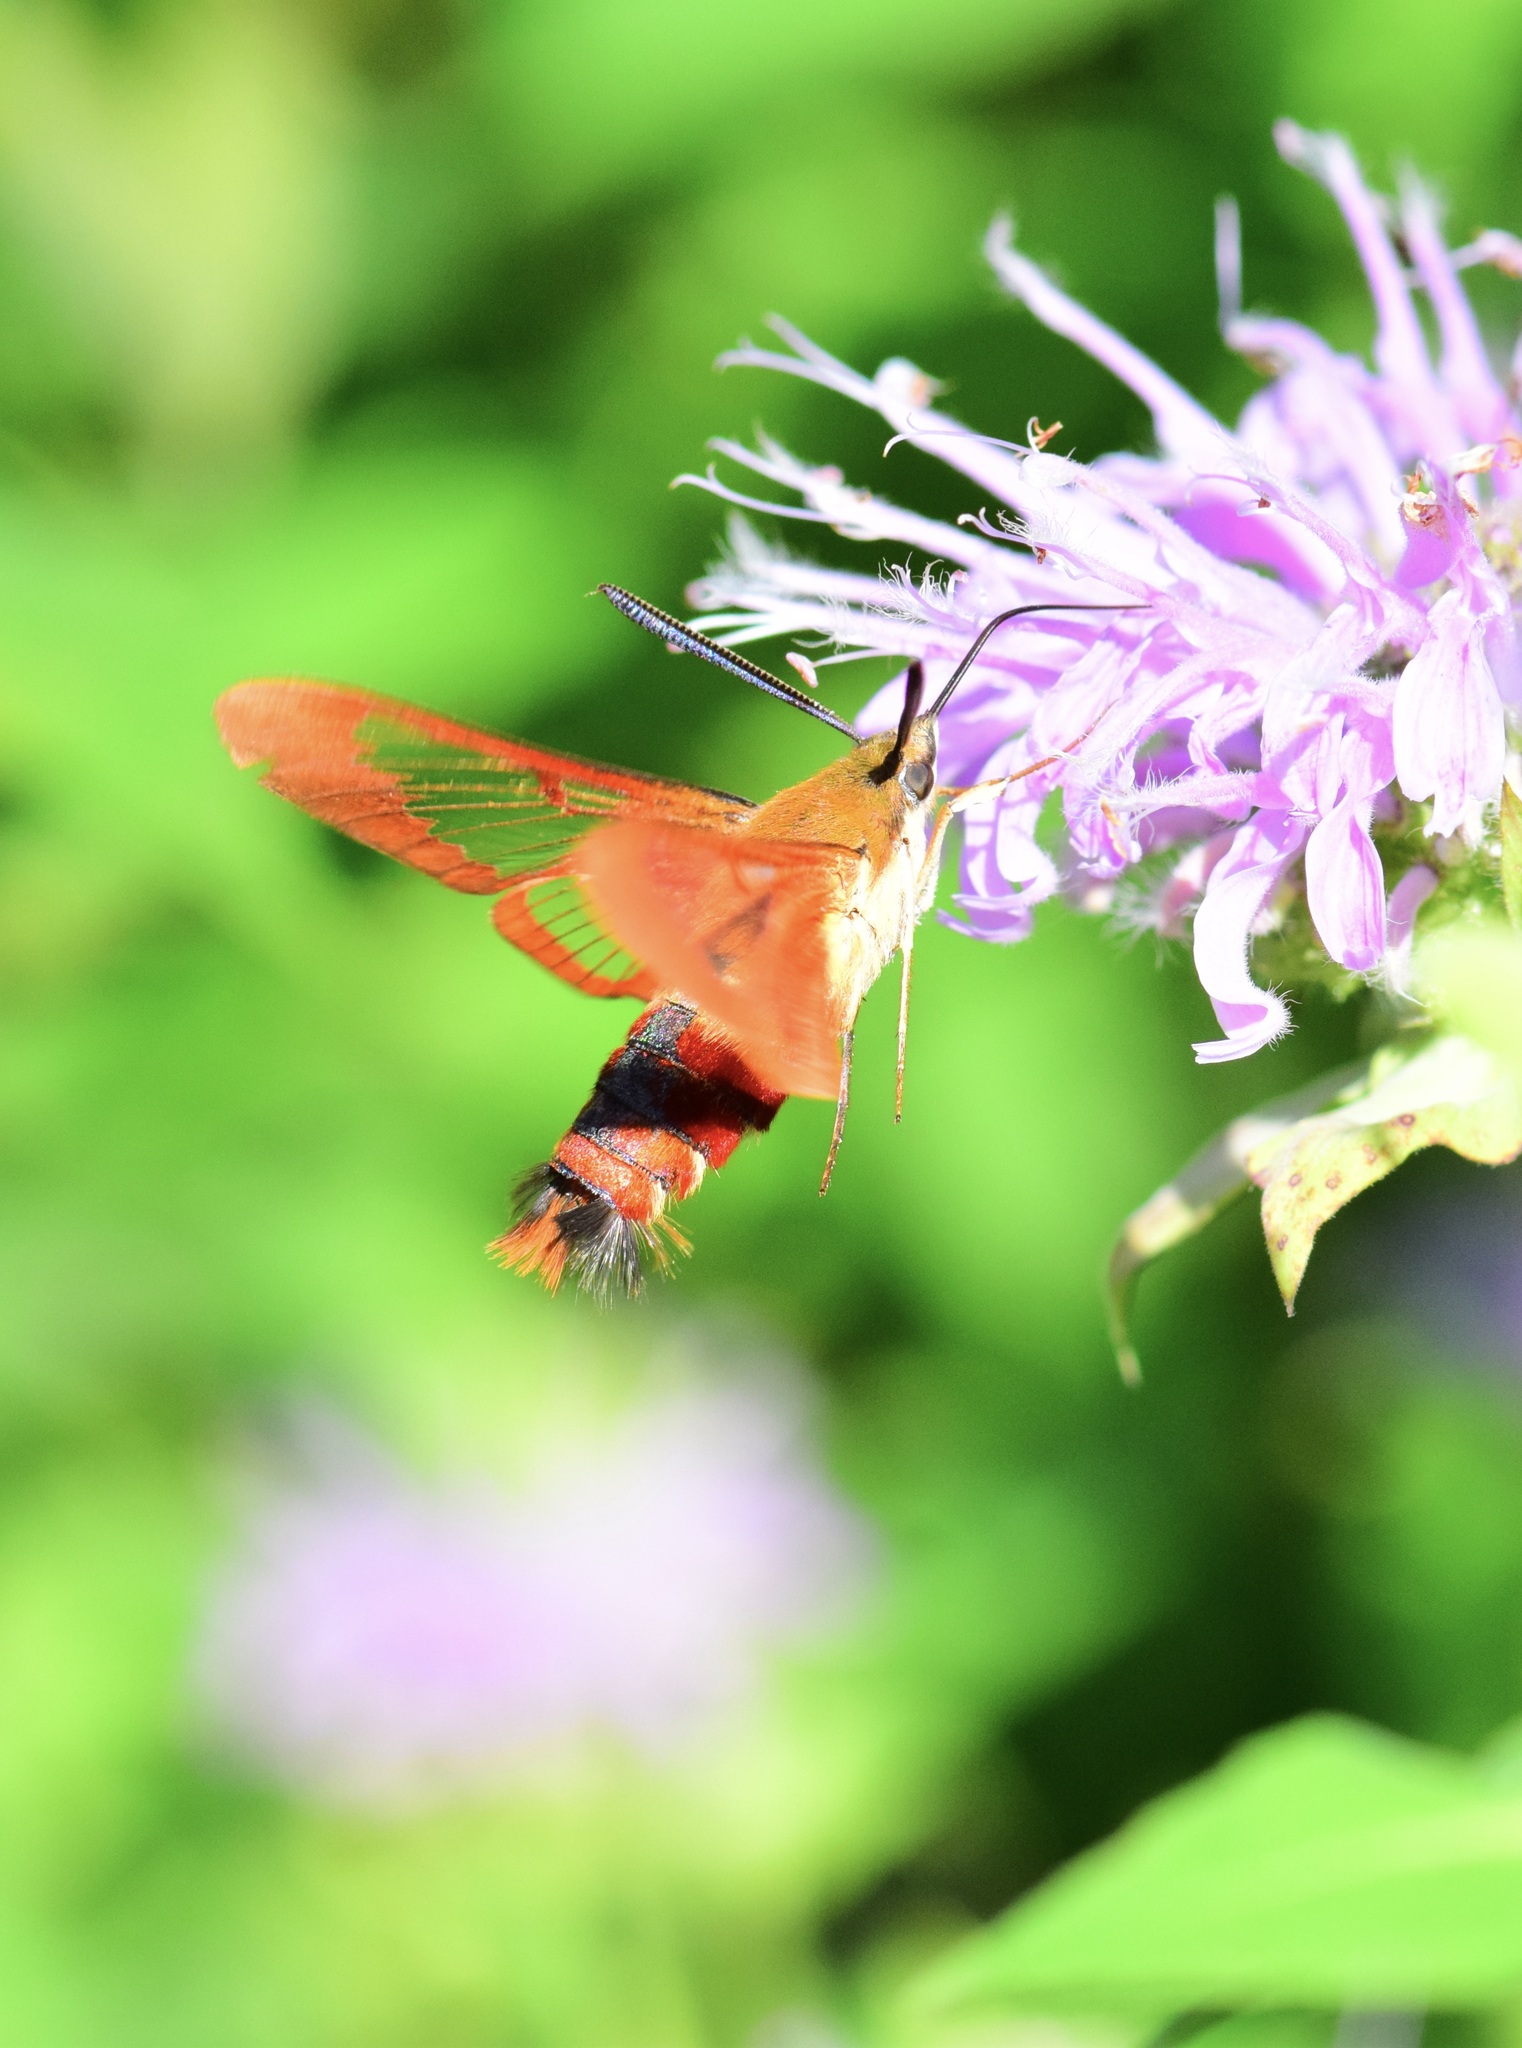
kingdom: Animalia
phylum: Arthropoda
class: Insecta
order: Lepidoptera
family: Sphingidae
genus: Hemaris
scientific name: Hemaris thysbe
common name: Common clear-wing
